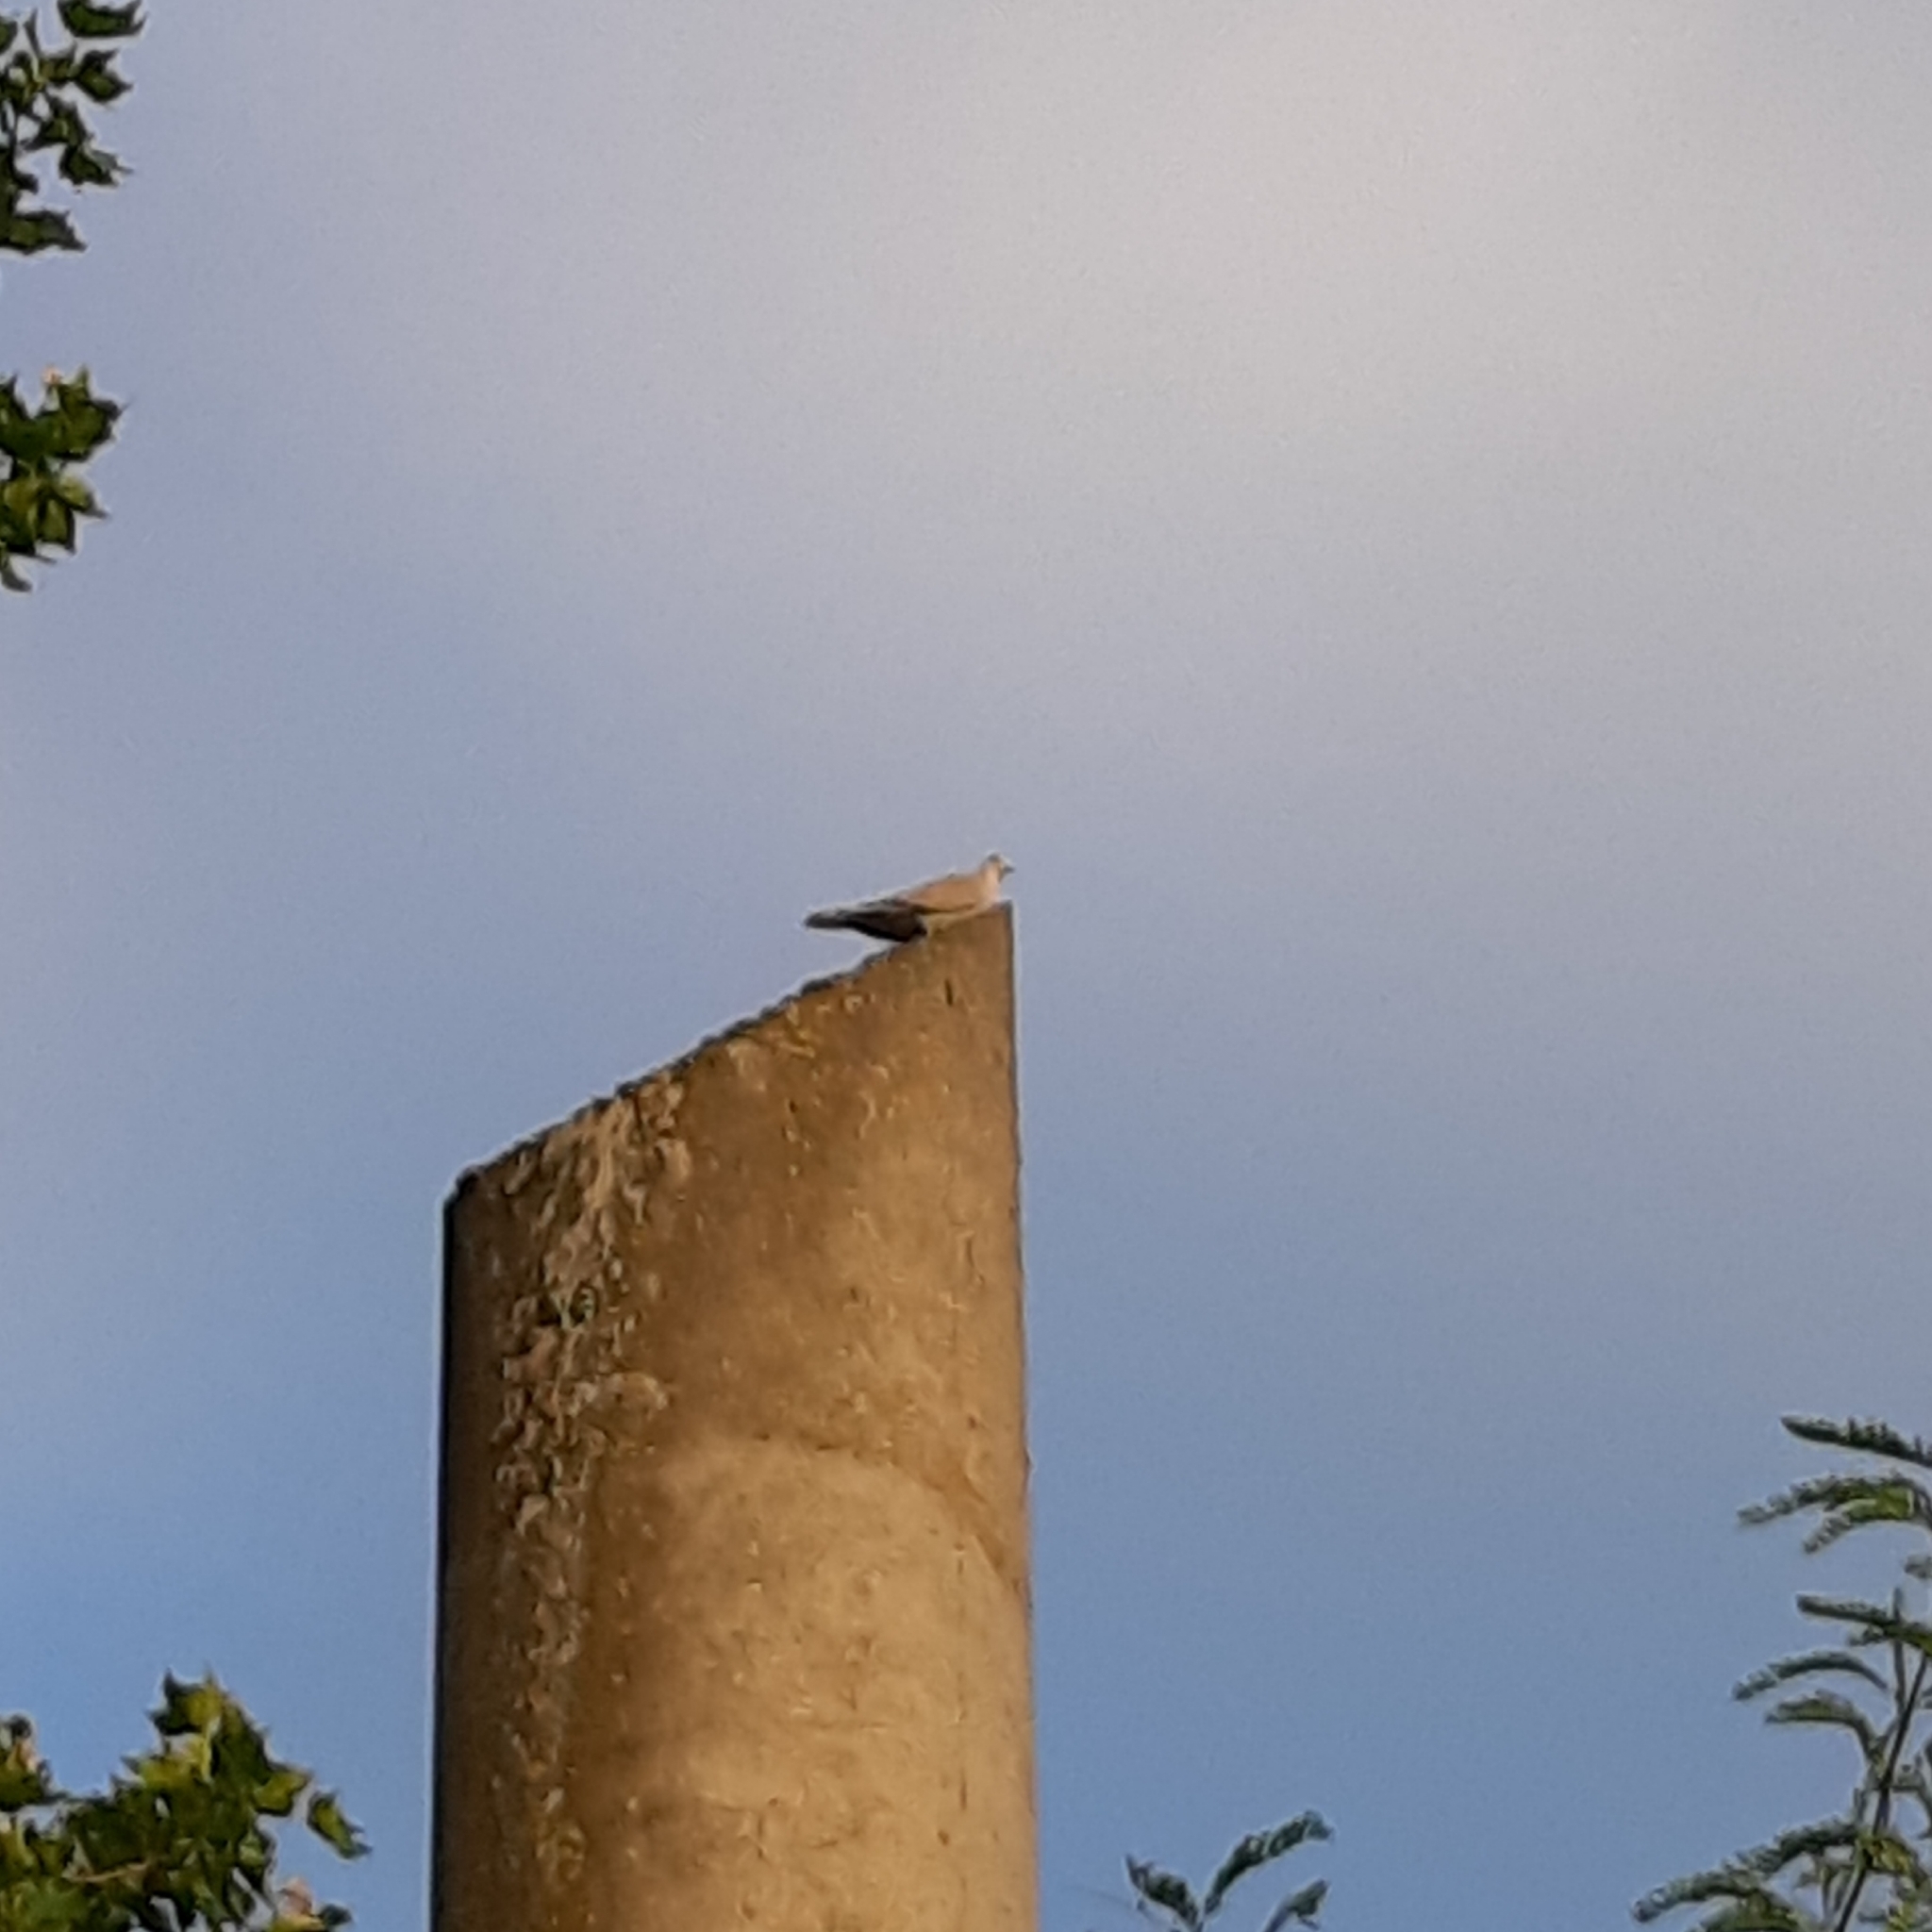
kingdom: Animalia
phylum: Chordata
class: Aves
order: Columbiformes
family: Columbidae
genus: Streptopelia
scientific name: Streptopelia decaocto
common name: Eurasian collared dove
